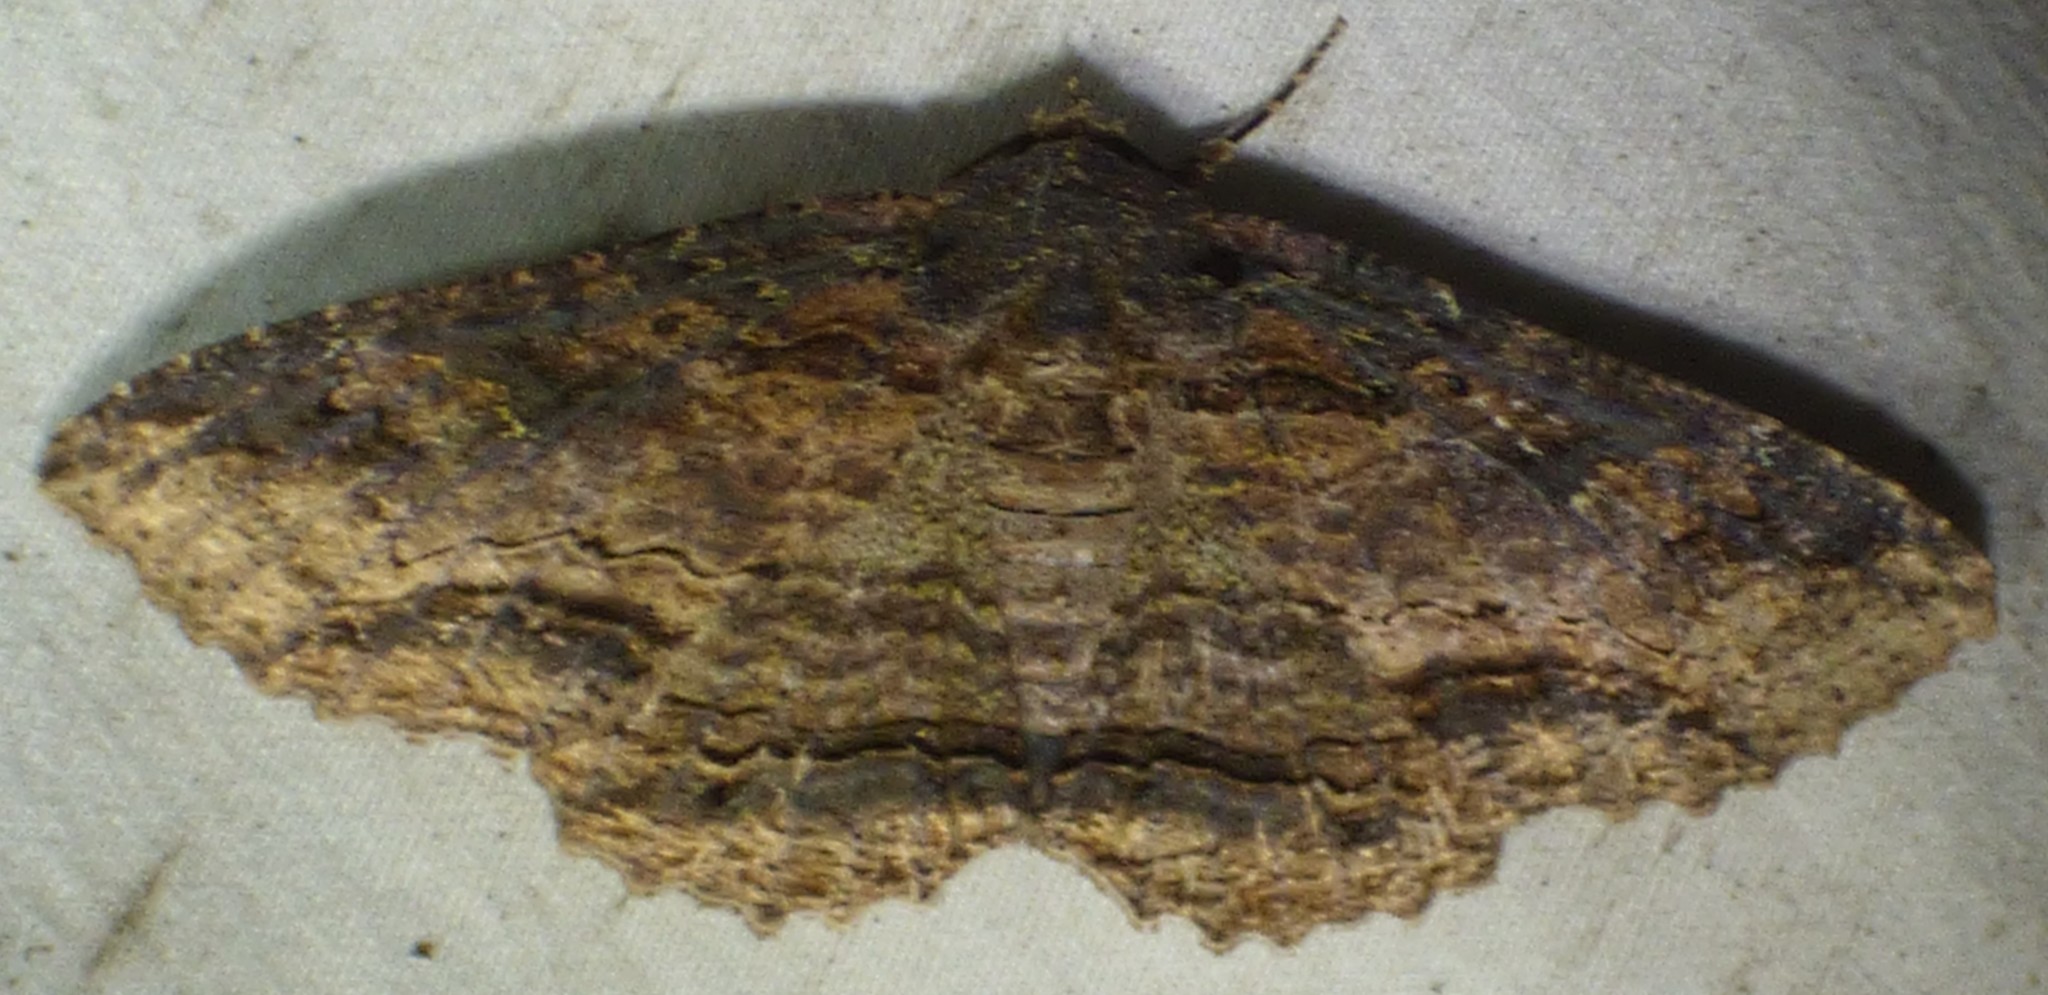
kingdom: Animalia
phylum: Arthropoda
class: Insecta
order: Lepidoptera
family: Erebidae
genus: Zale
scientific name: Zale lunata
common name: Lunate zale moth
